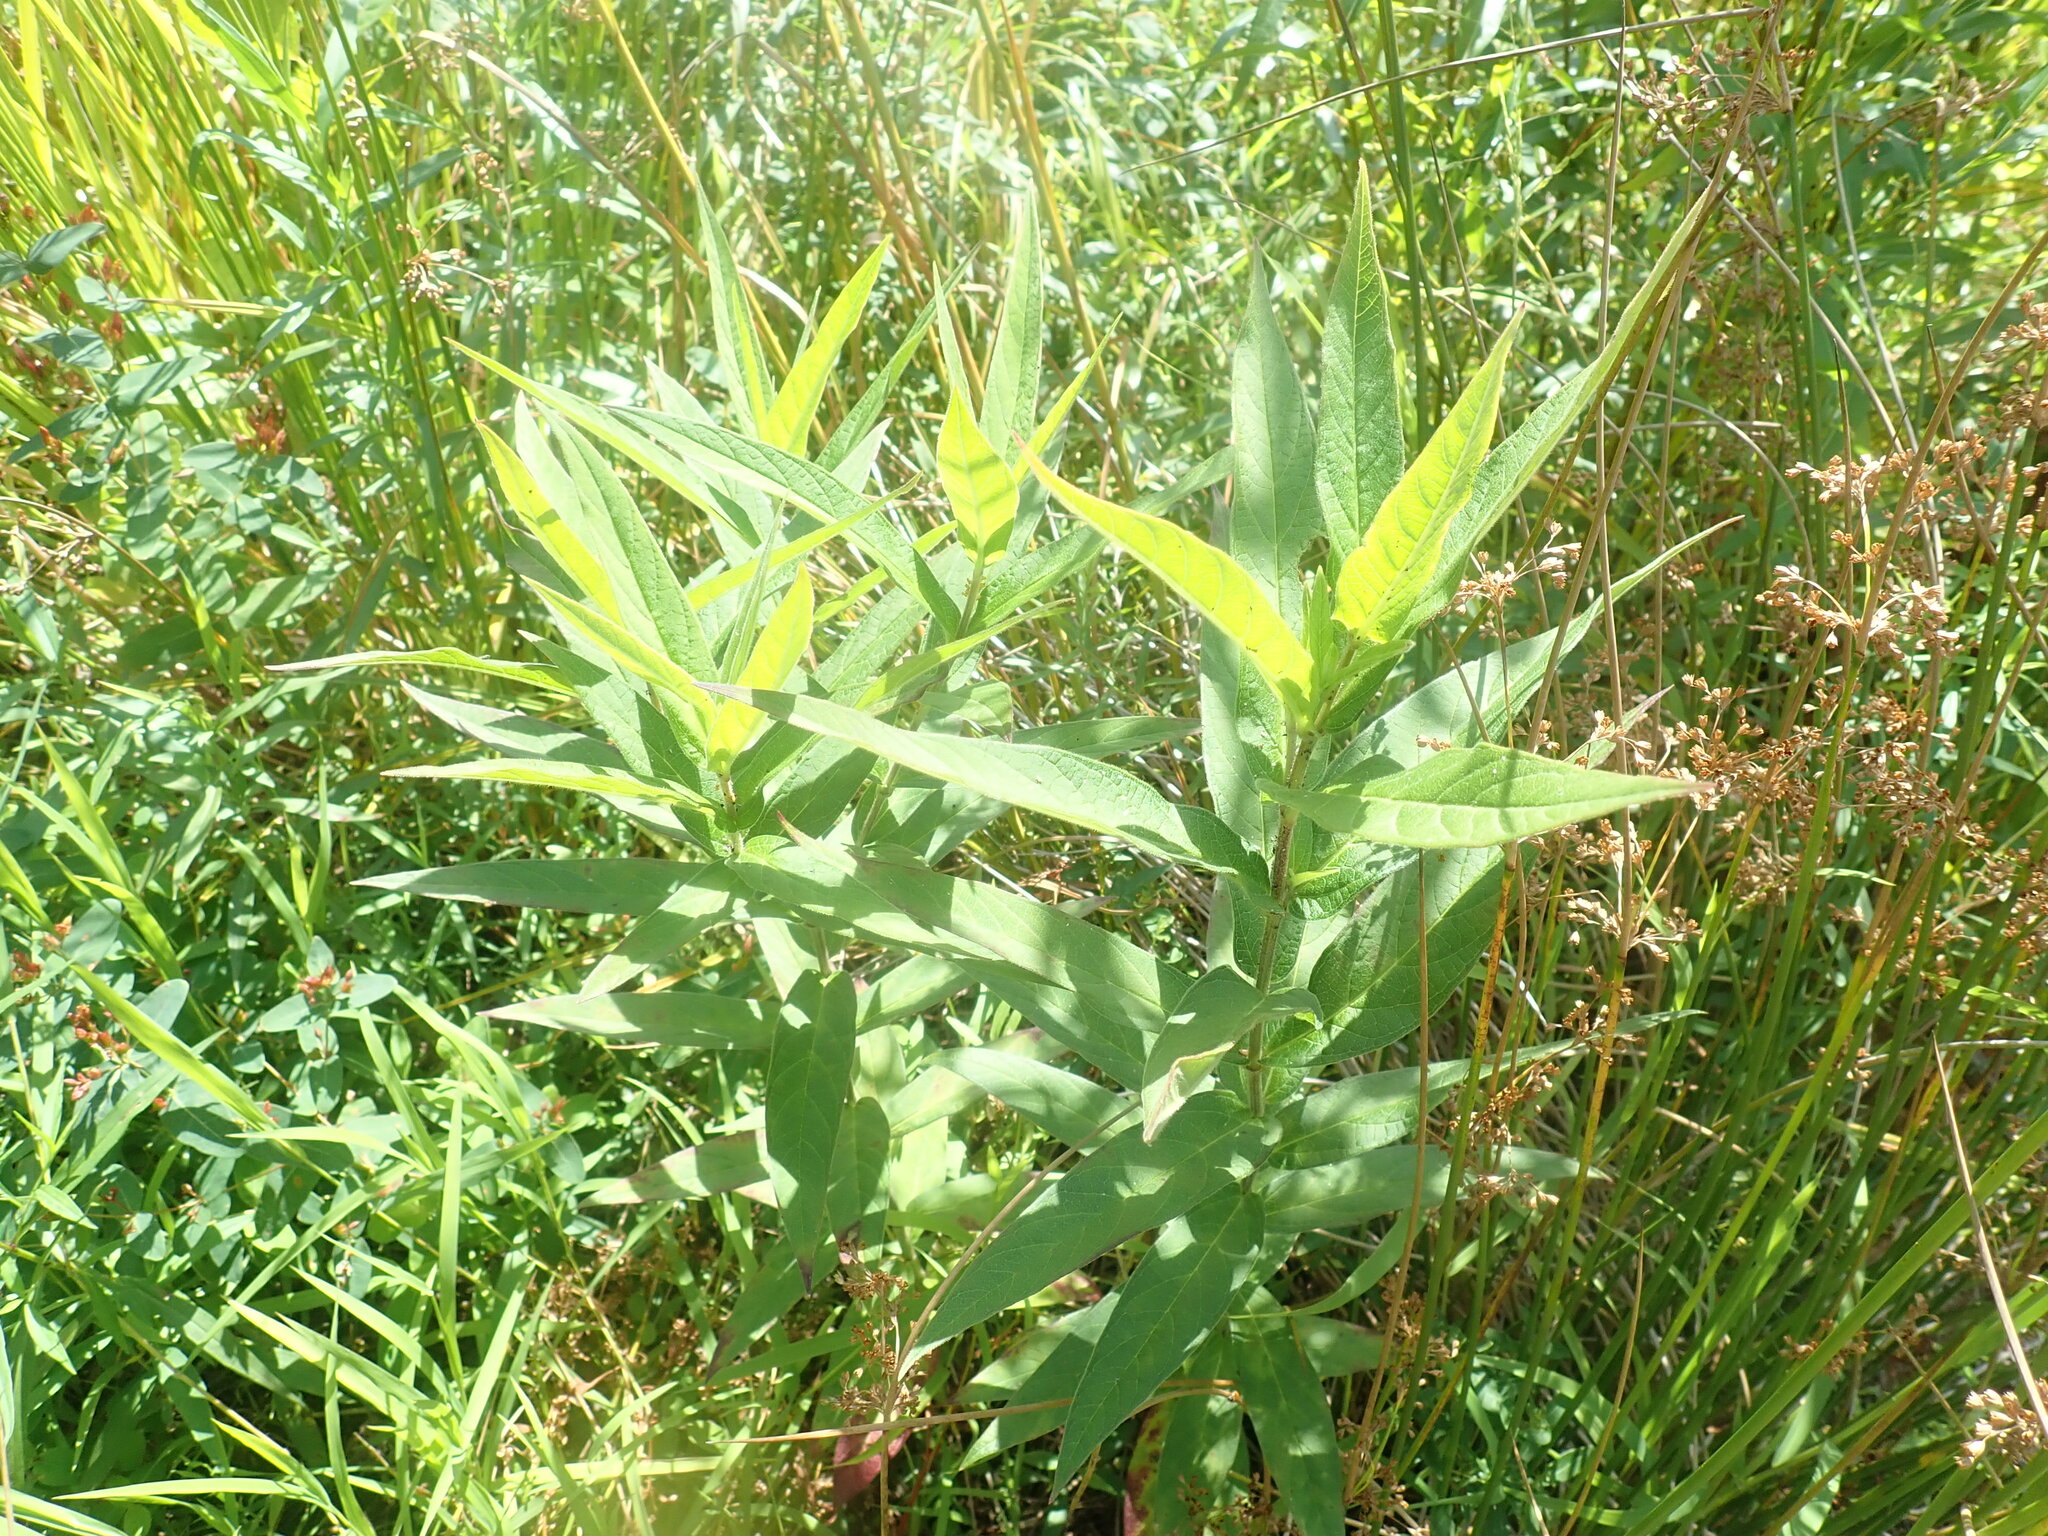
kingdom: Plantae
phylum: Tracheophyta
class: Magnoliopsida
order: Gentianales
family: Apocynaceae
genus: Asclepias
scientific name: Asclepias incarnata
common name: Swamp milkweed
